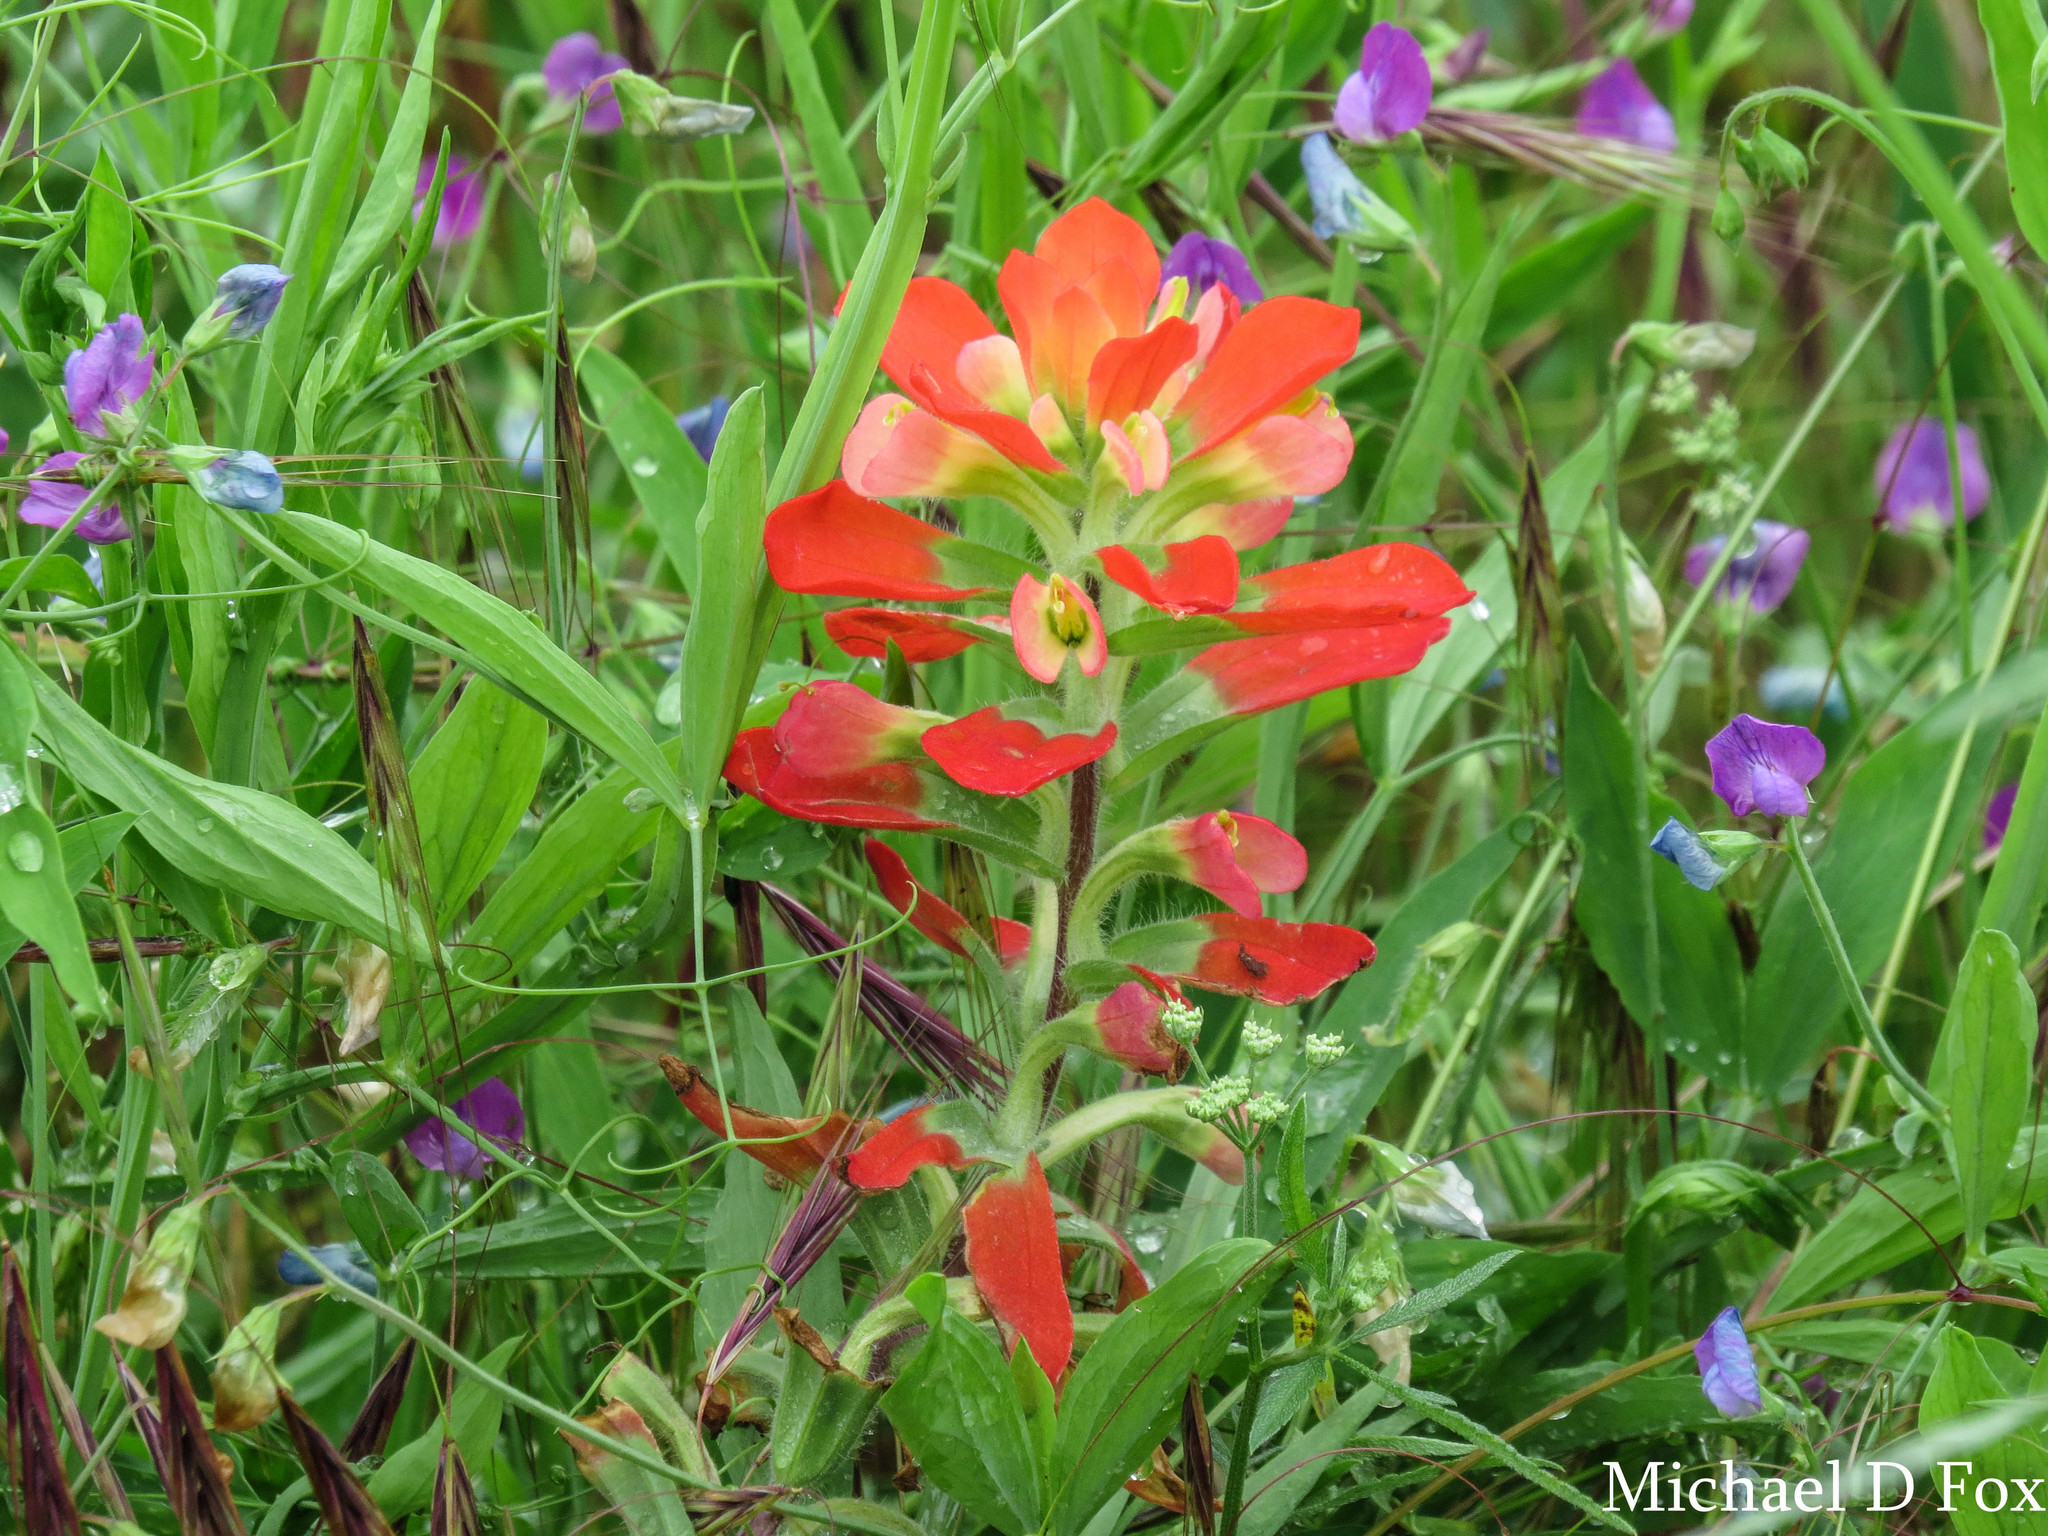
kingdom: Plantae
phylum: Tracheophyta
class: Magnoliopsida
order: Lamiales
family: Orobanchaceae
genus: Castilleja
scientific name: Castilleja indivisa
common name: Texas paintbrush
